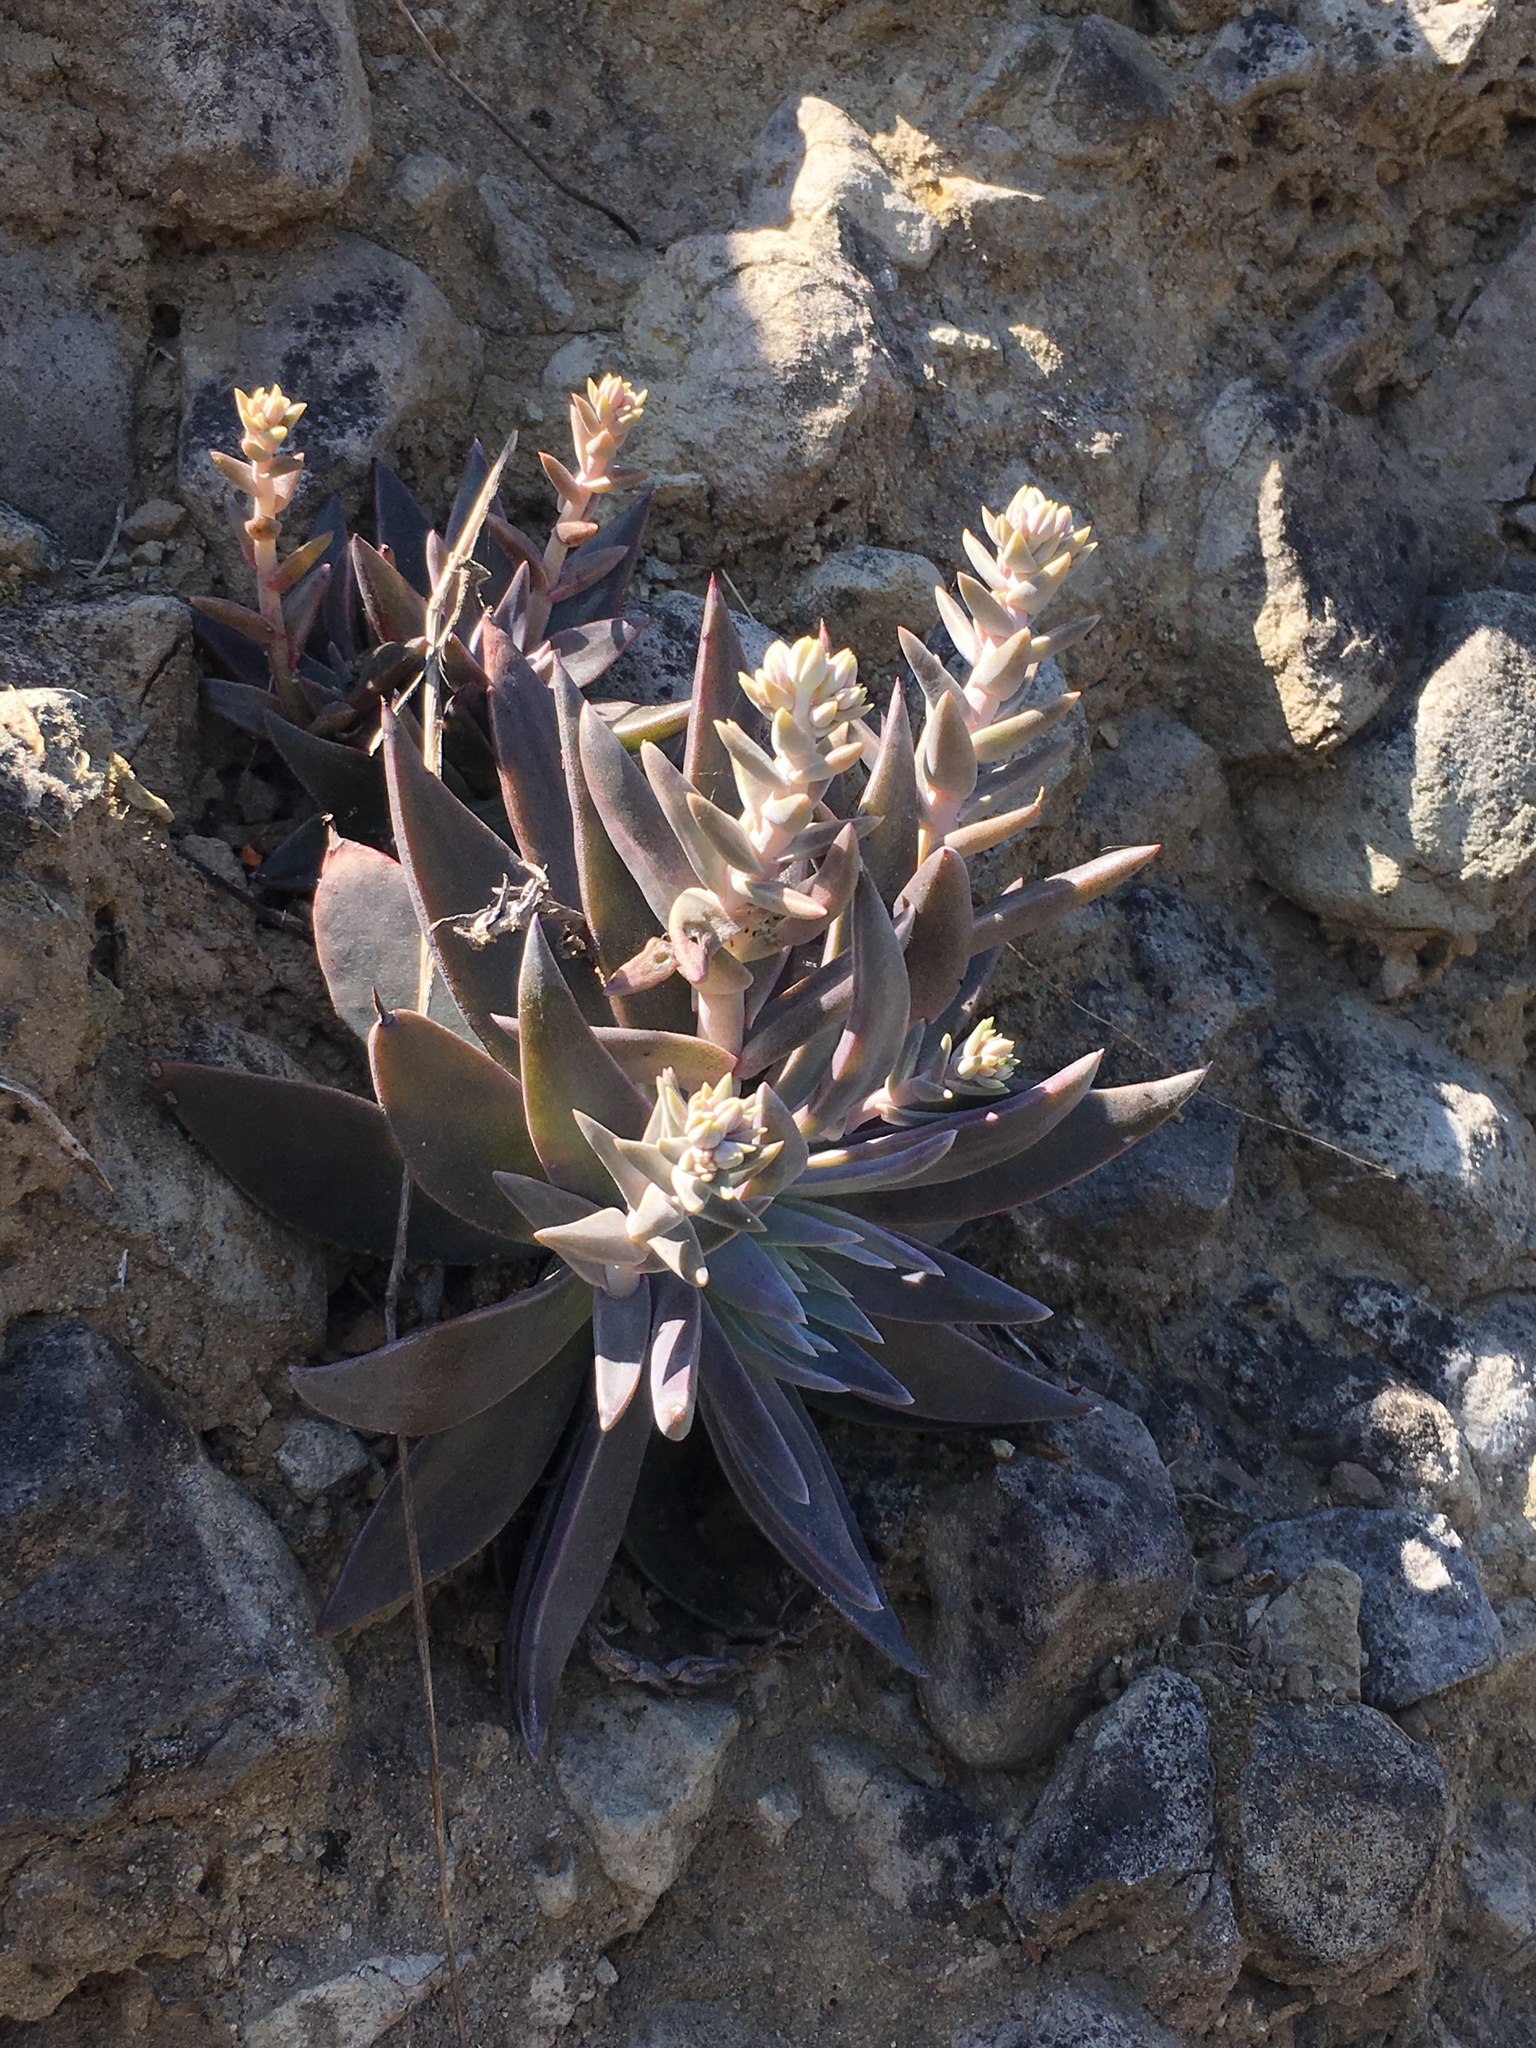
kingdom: Plantae
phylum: Tracheophyta
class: Magnoliopsida
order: Saxifragales
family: Crassulaceae
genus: Dudleya
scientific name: Dudleya cymosa
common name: Canyon dudleya
